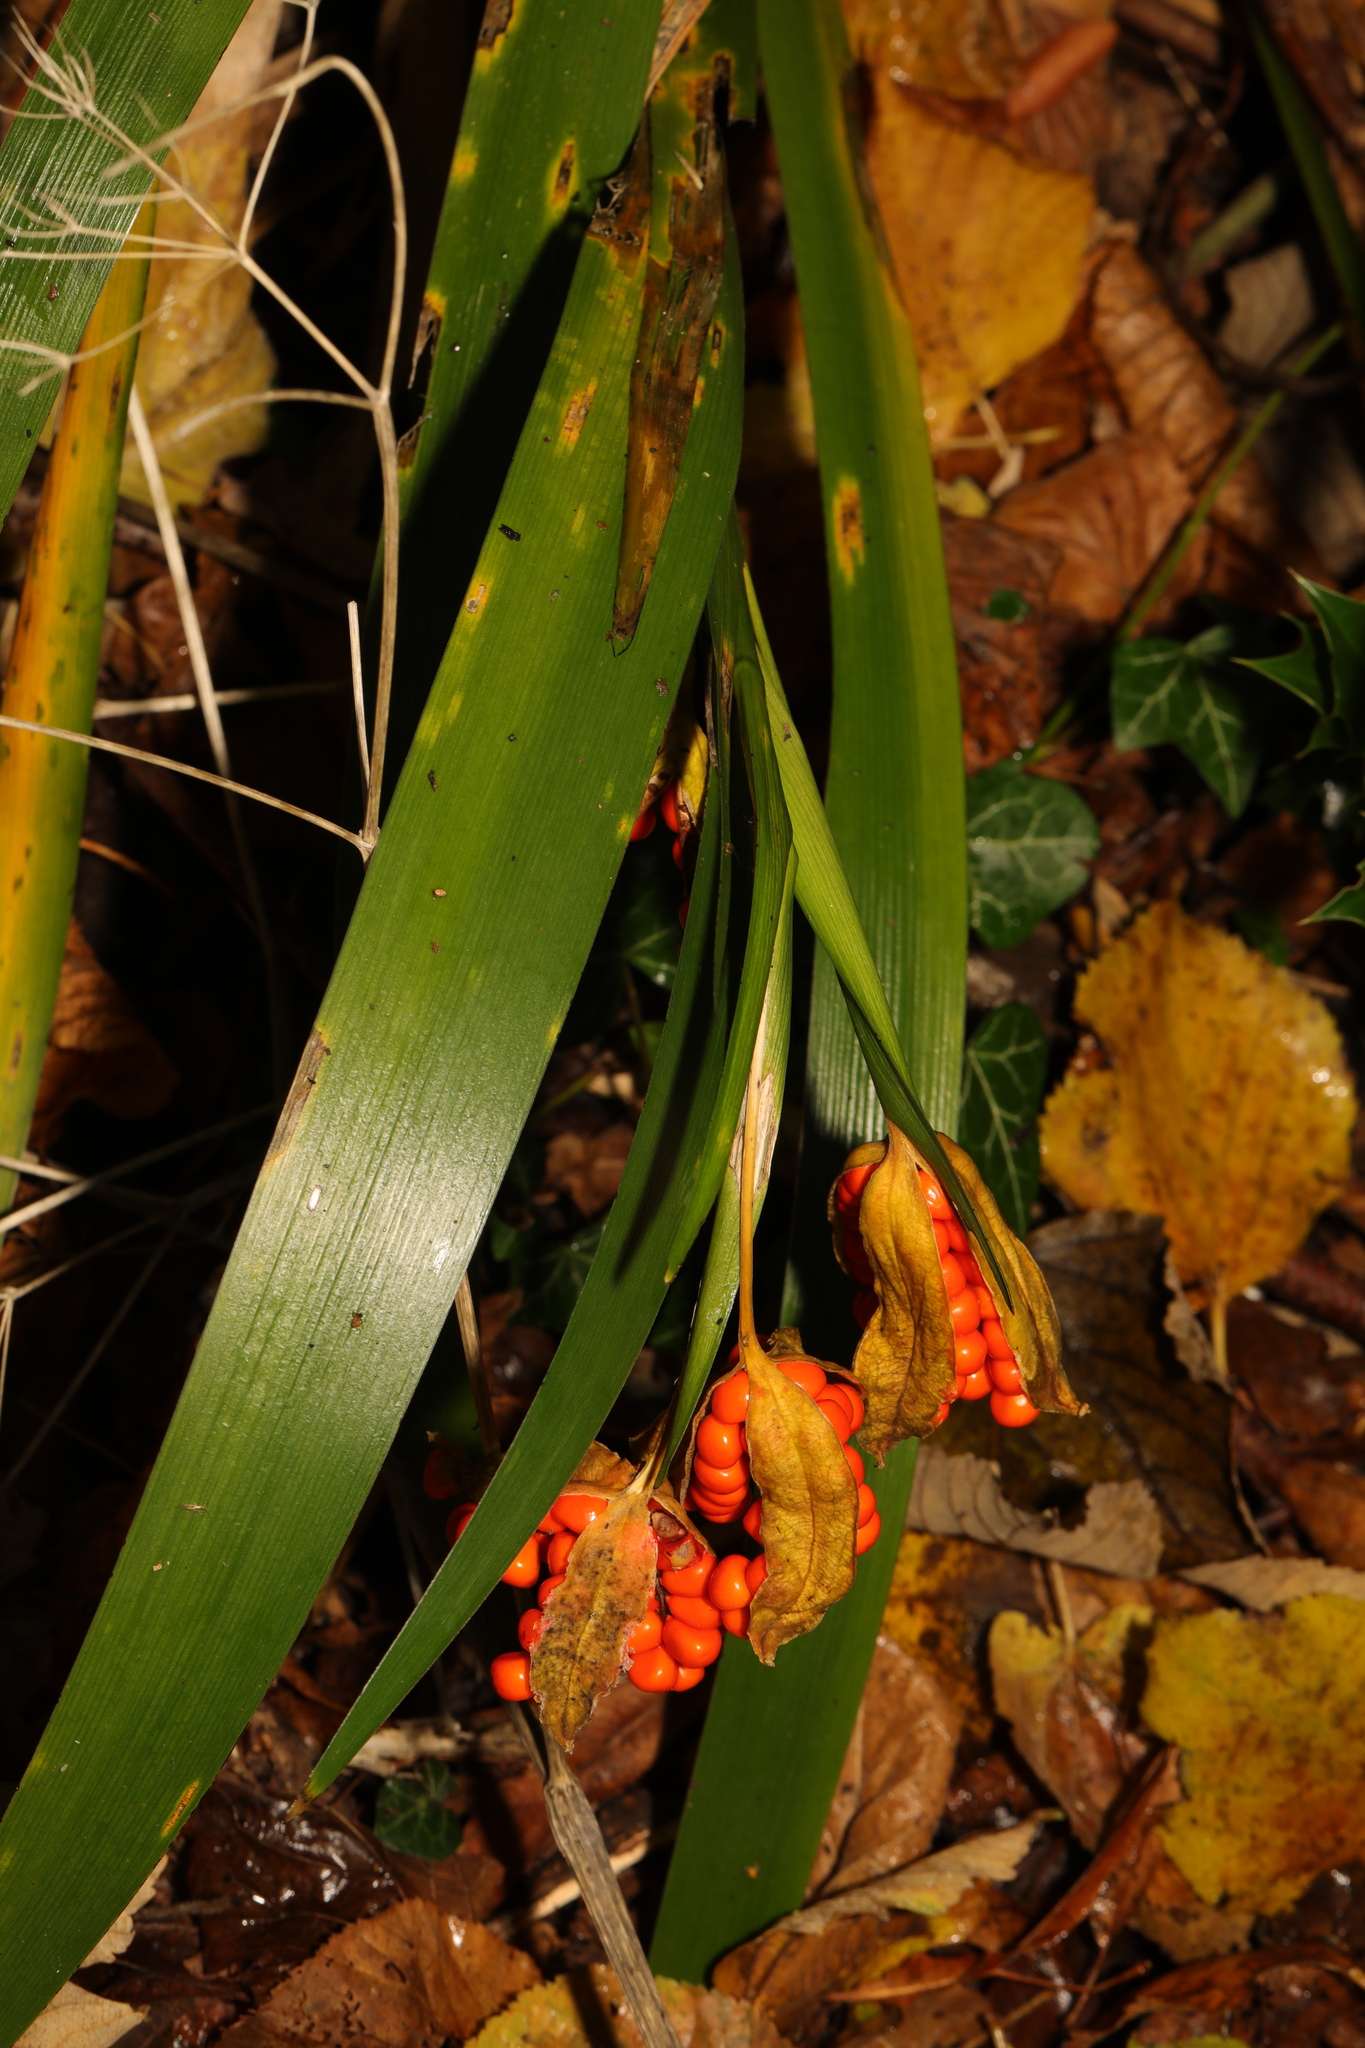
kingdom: Plantae
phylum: Tracheophyta
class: Liliopsida
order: Asparagales
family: Iridaceae
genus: Iris
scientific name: Iris foetidissima
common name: Stinking iris
